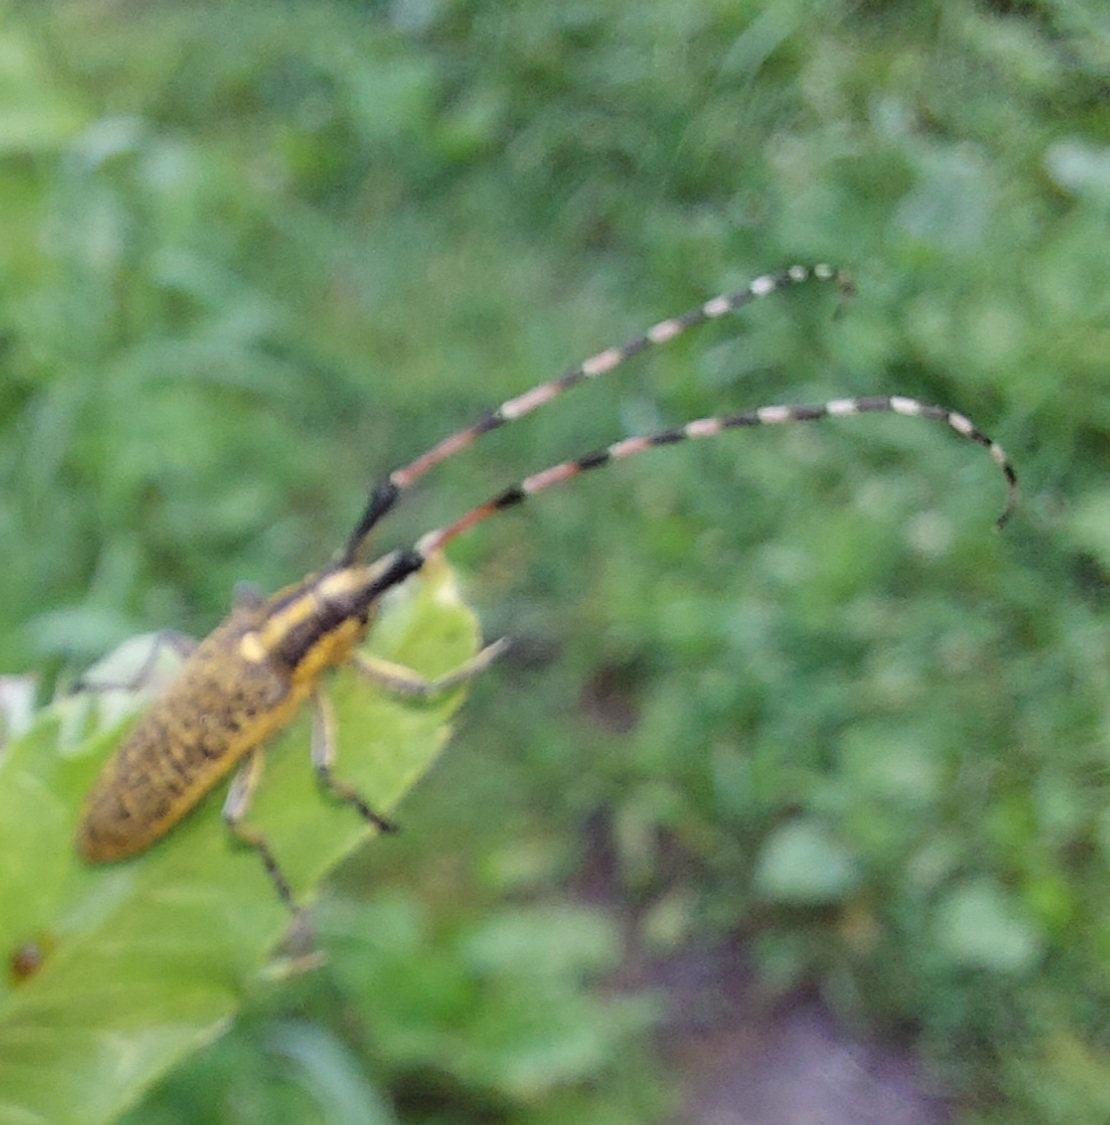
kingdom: Animalia
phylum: Arthropoda
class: Insecta
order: Coleoptera
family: Cerambycidae
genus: Agapanthia
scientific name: Agapanthia dahlii
